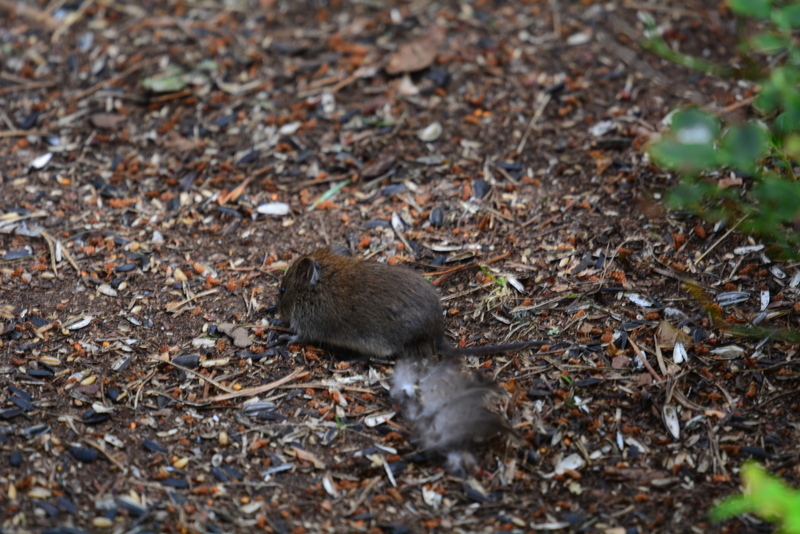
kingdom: Animalia
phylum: Chordata
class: Mammalia
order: Rodentia
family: Cricetidae
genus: Myodes
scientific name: Myodes glareolus
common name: Bank vole
